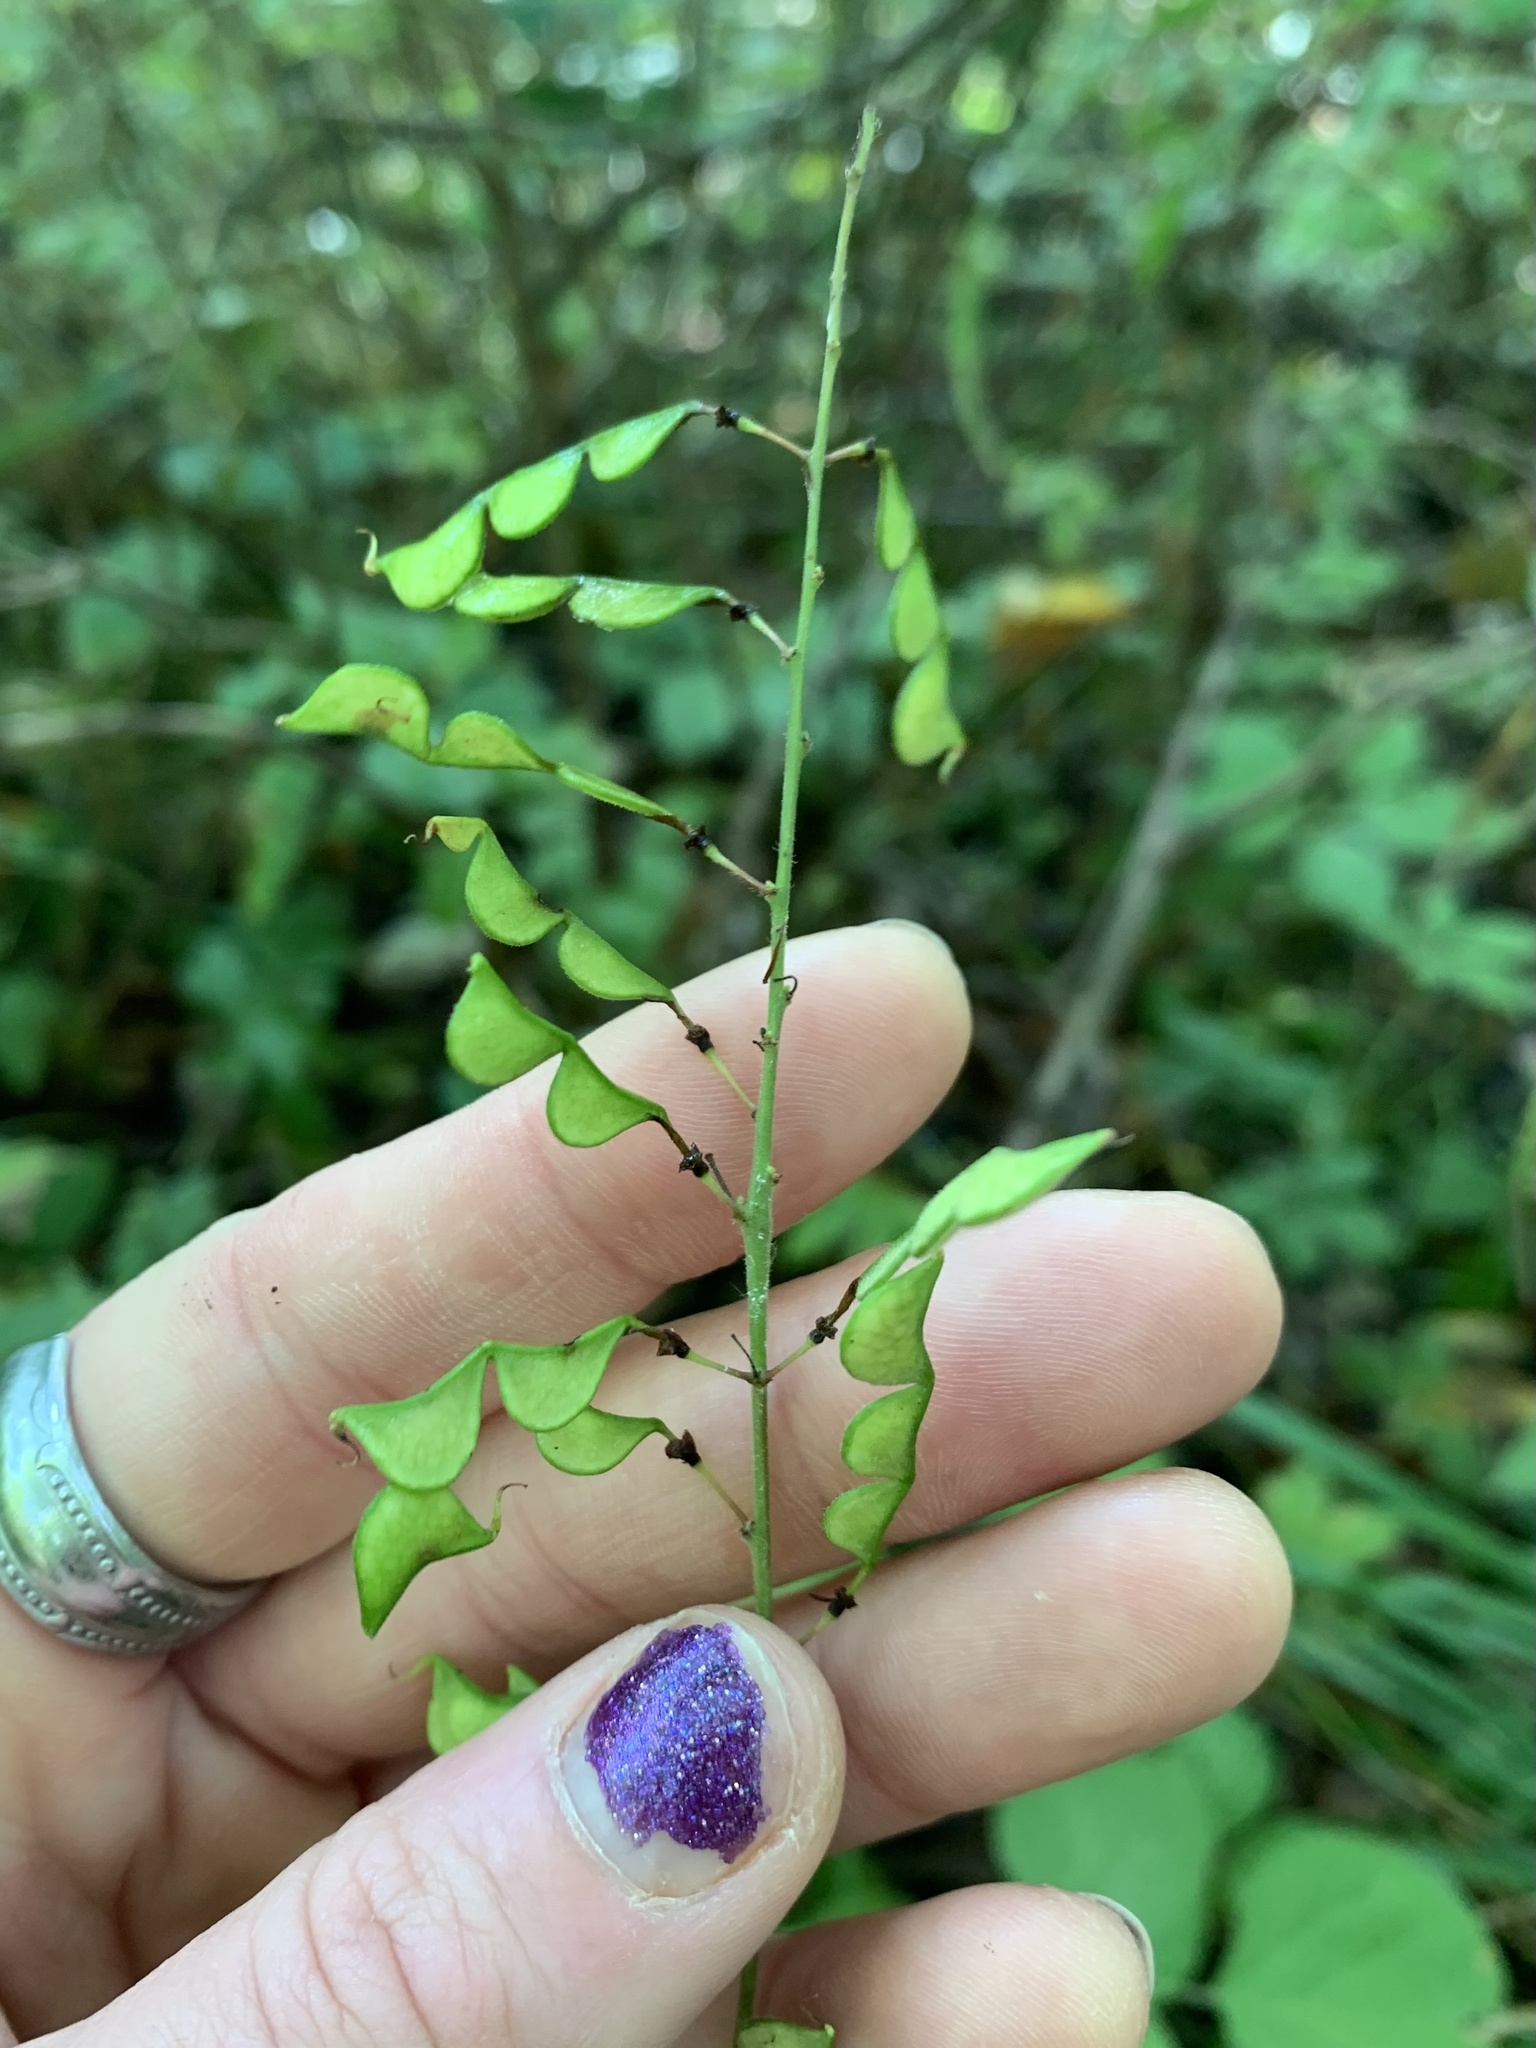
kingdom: Plantae
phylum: Tracheophyta
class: Magnoliopsida
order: Fabales
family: Fabaceae
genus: Hylodesmum
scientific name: Hylodesmum glutinosum
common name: Clustered-leaved tick-trefoil
